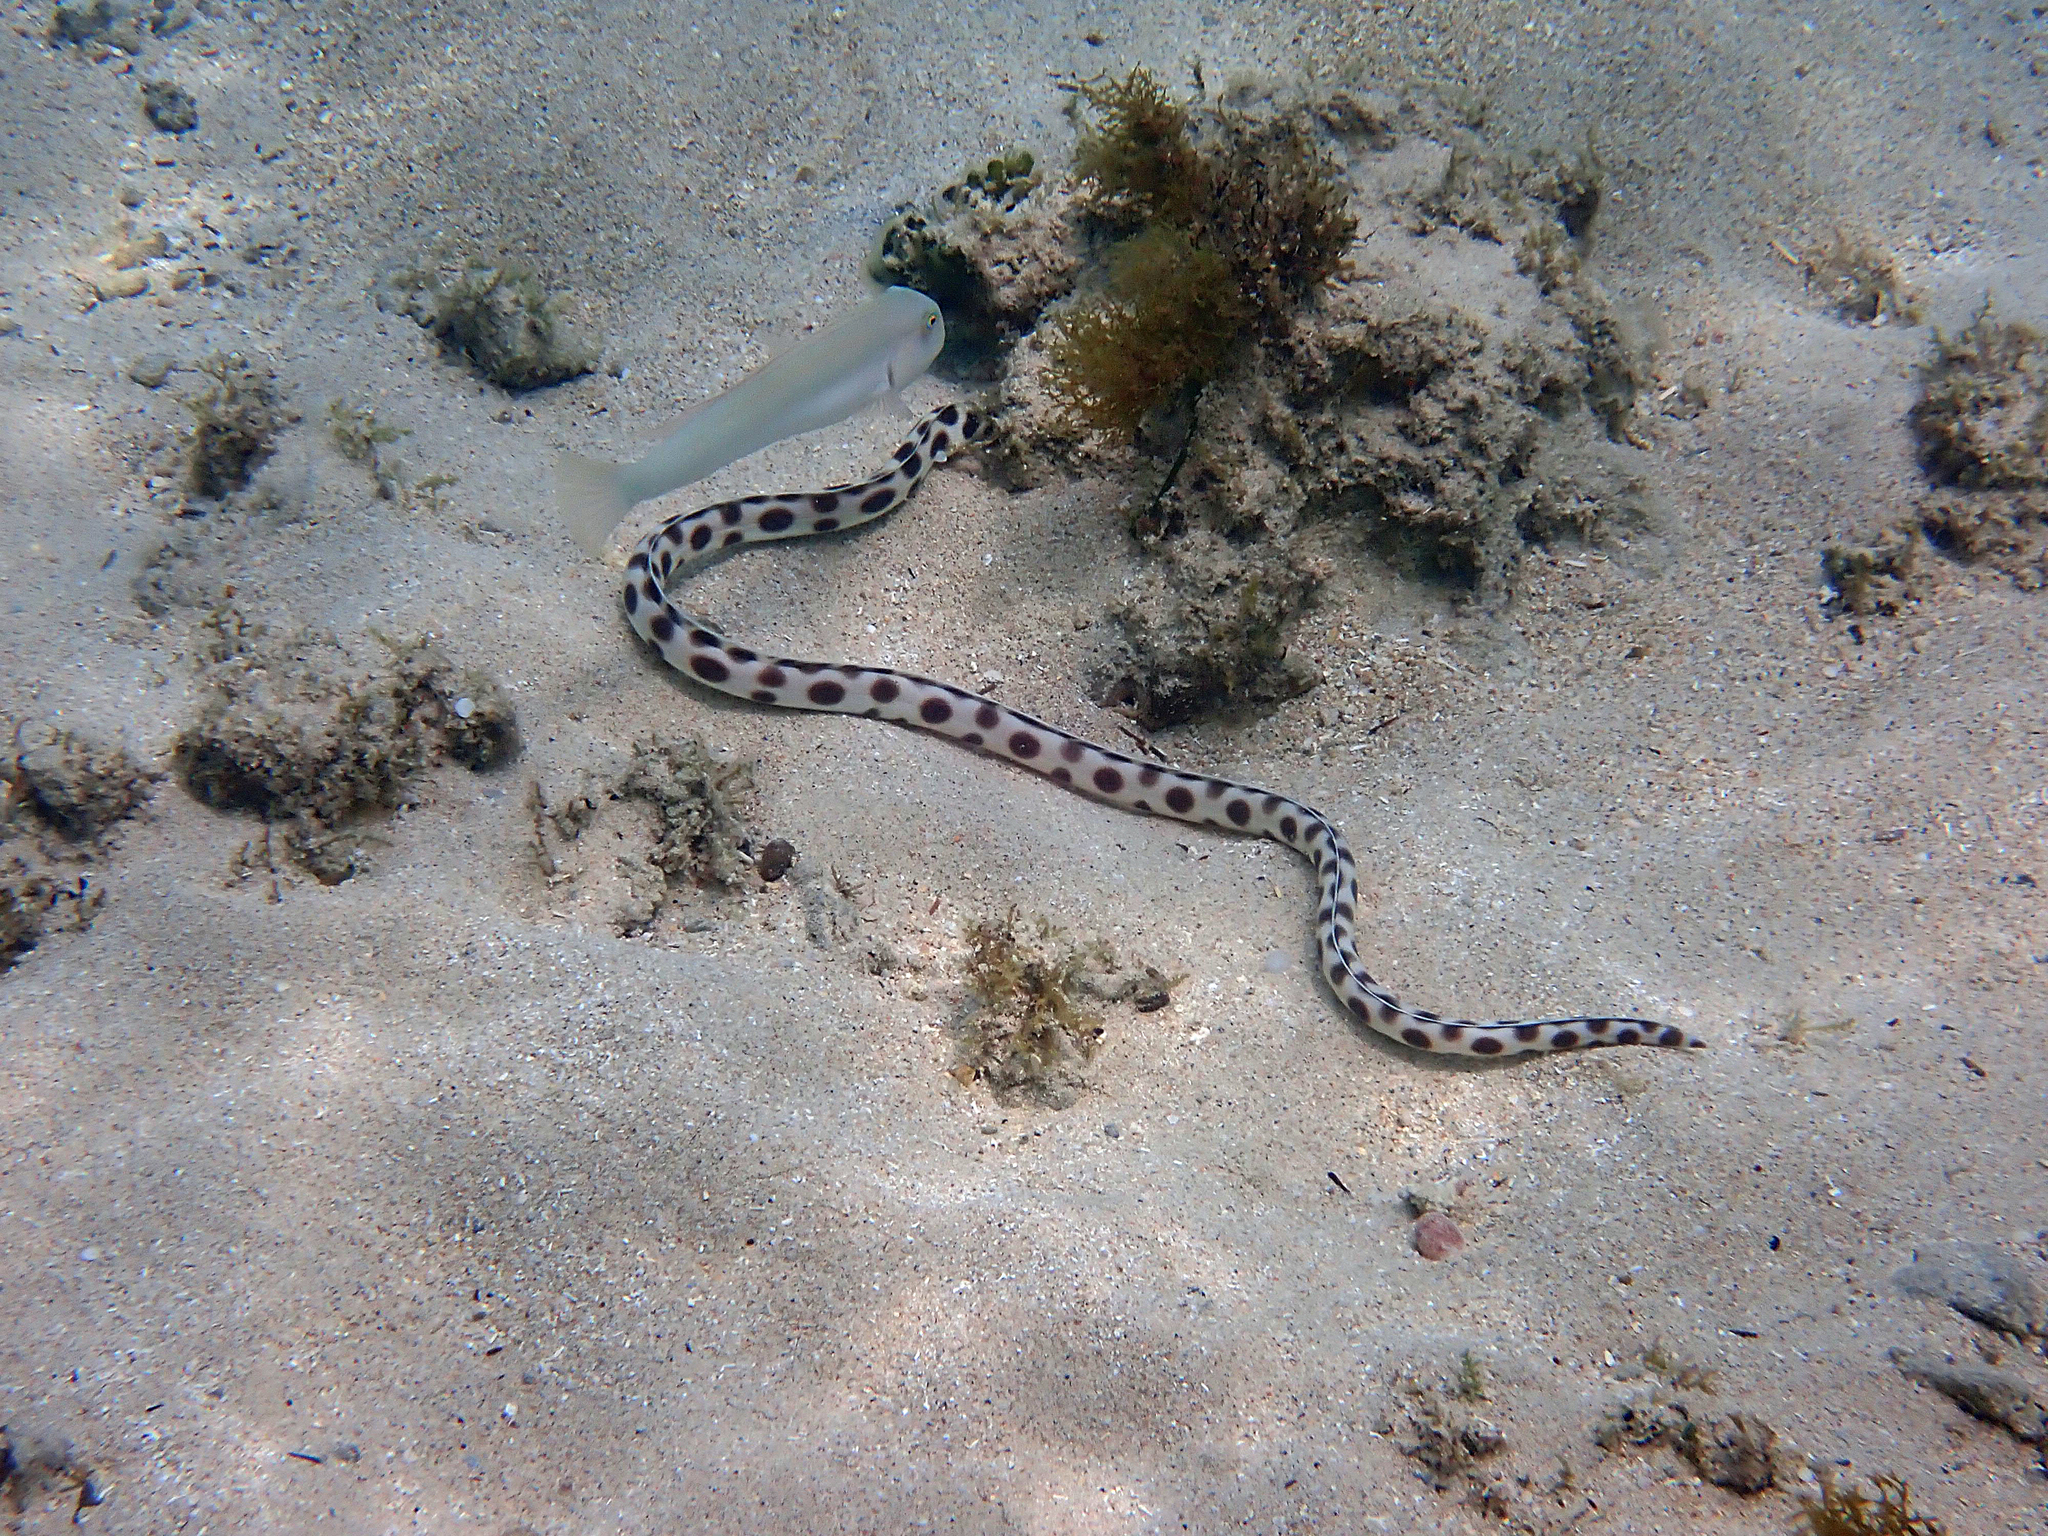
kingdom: Animalia
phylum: Chordata
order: Anguilliformes
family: Ophichthidae
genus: Myrichthys
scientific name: Myrichthys maculosus
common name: Spotted snake eel
